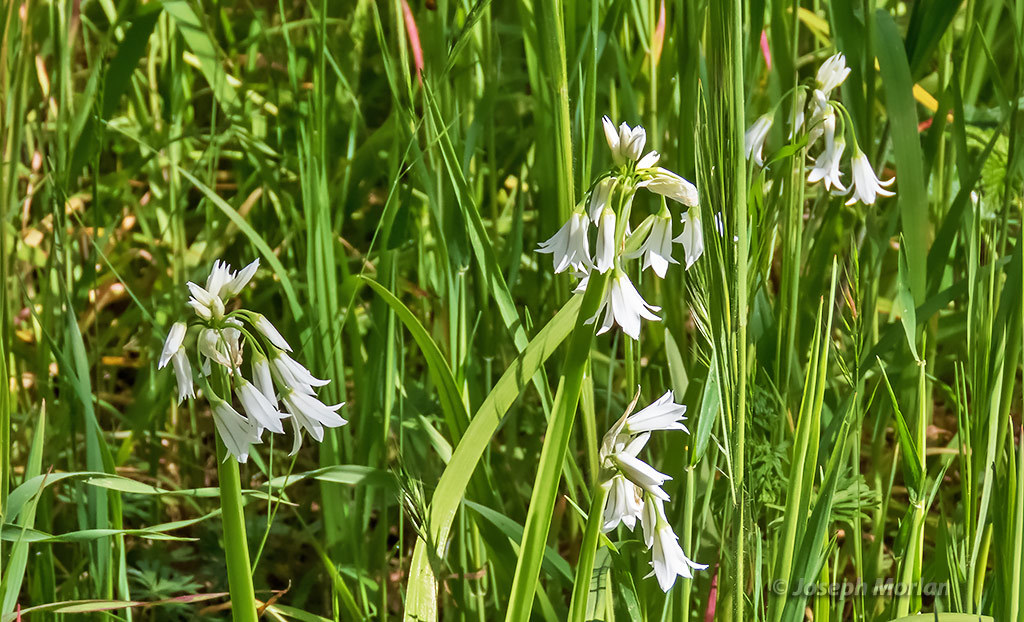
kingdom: Plantae
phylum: Tracheophyta
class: Liliopsida
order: Asparagales
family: Amaryllidaceae
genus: Allium
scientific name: Allium triquetrum
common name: Three-cornered garlic
